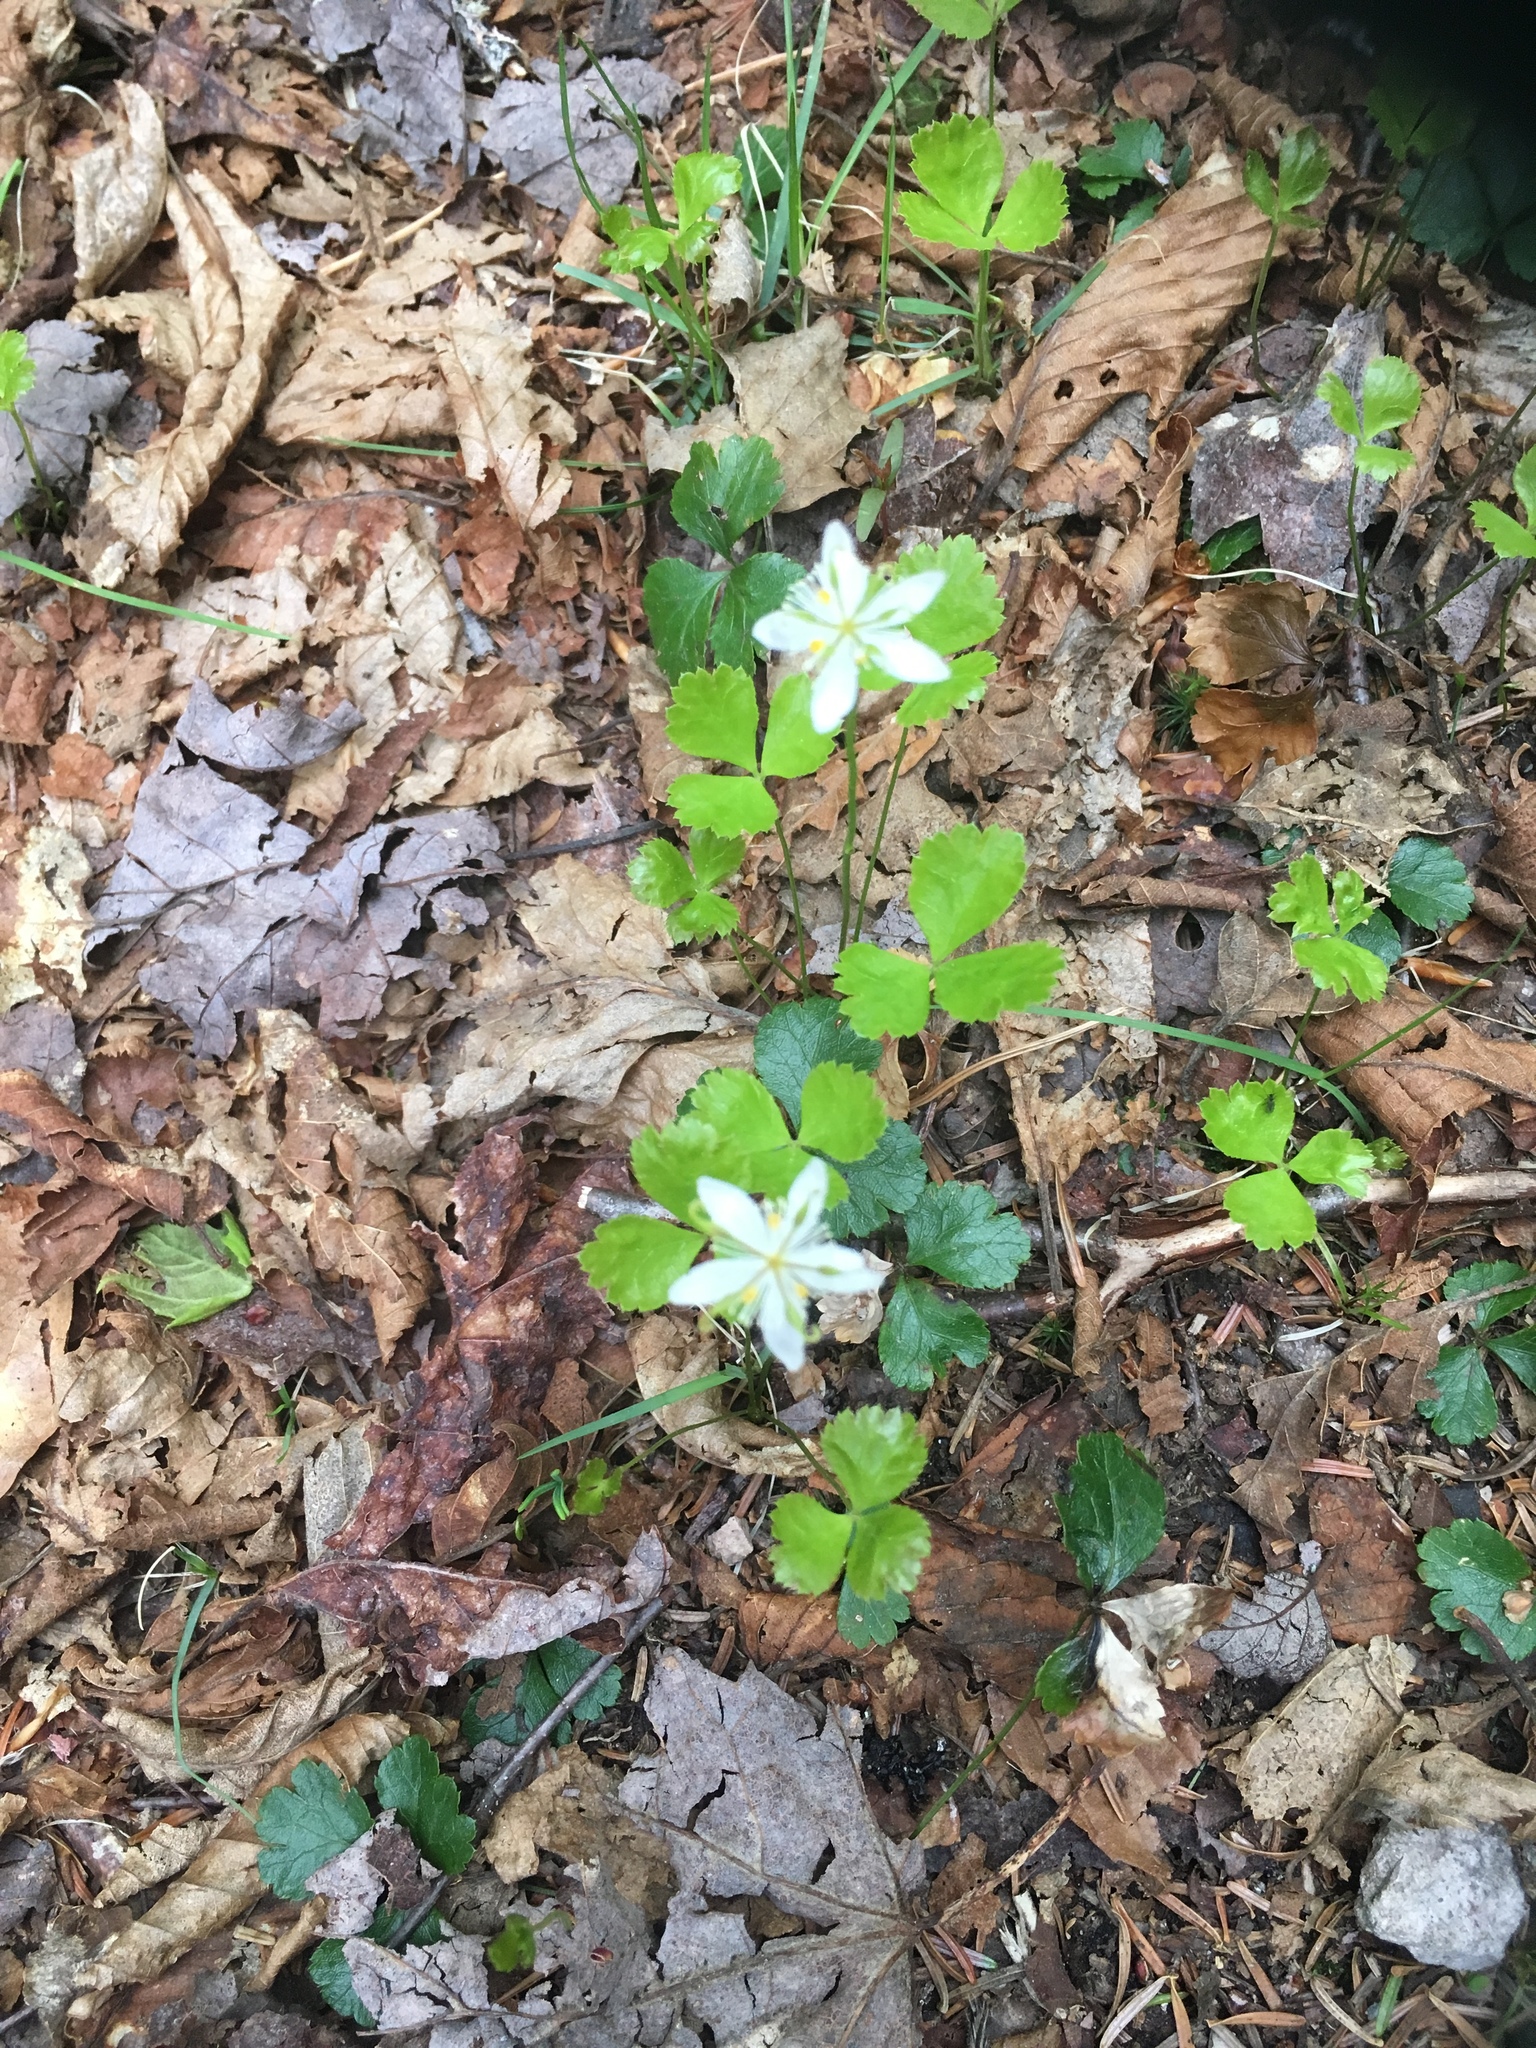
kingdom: Plantae
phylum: Tracheophyta
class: Magnoliopsida
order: Ranunculales
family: Ranunculaceae
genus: Coptis
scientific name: Coptis trifolia
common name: Canker-root
